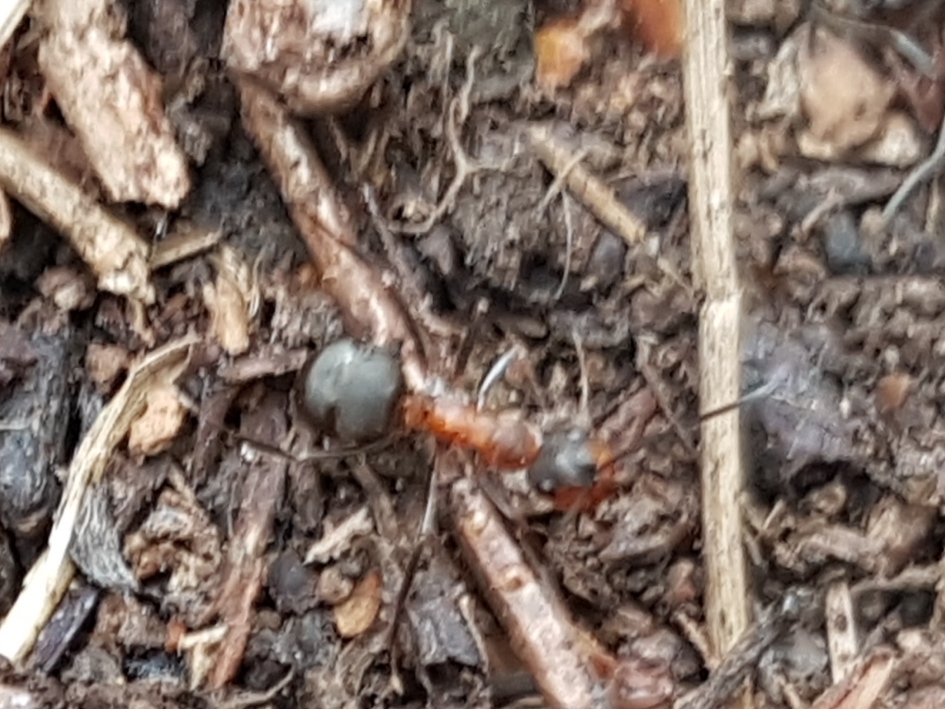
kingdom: Animalia
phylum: Arthropoda
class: Insecta
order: Hymenoptera
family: Formicidae
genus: Formica
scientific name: Formica
